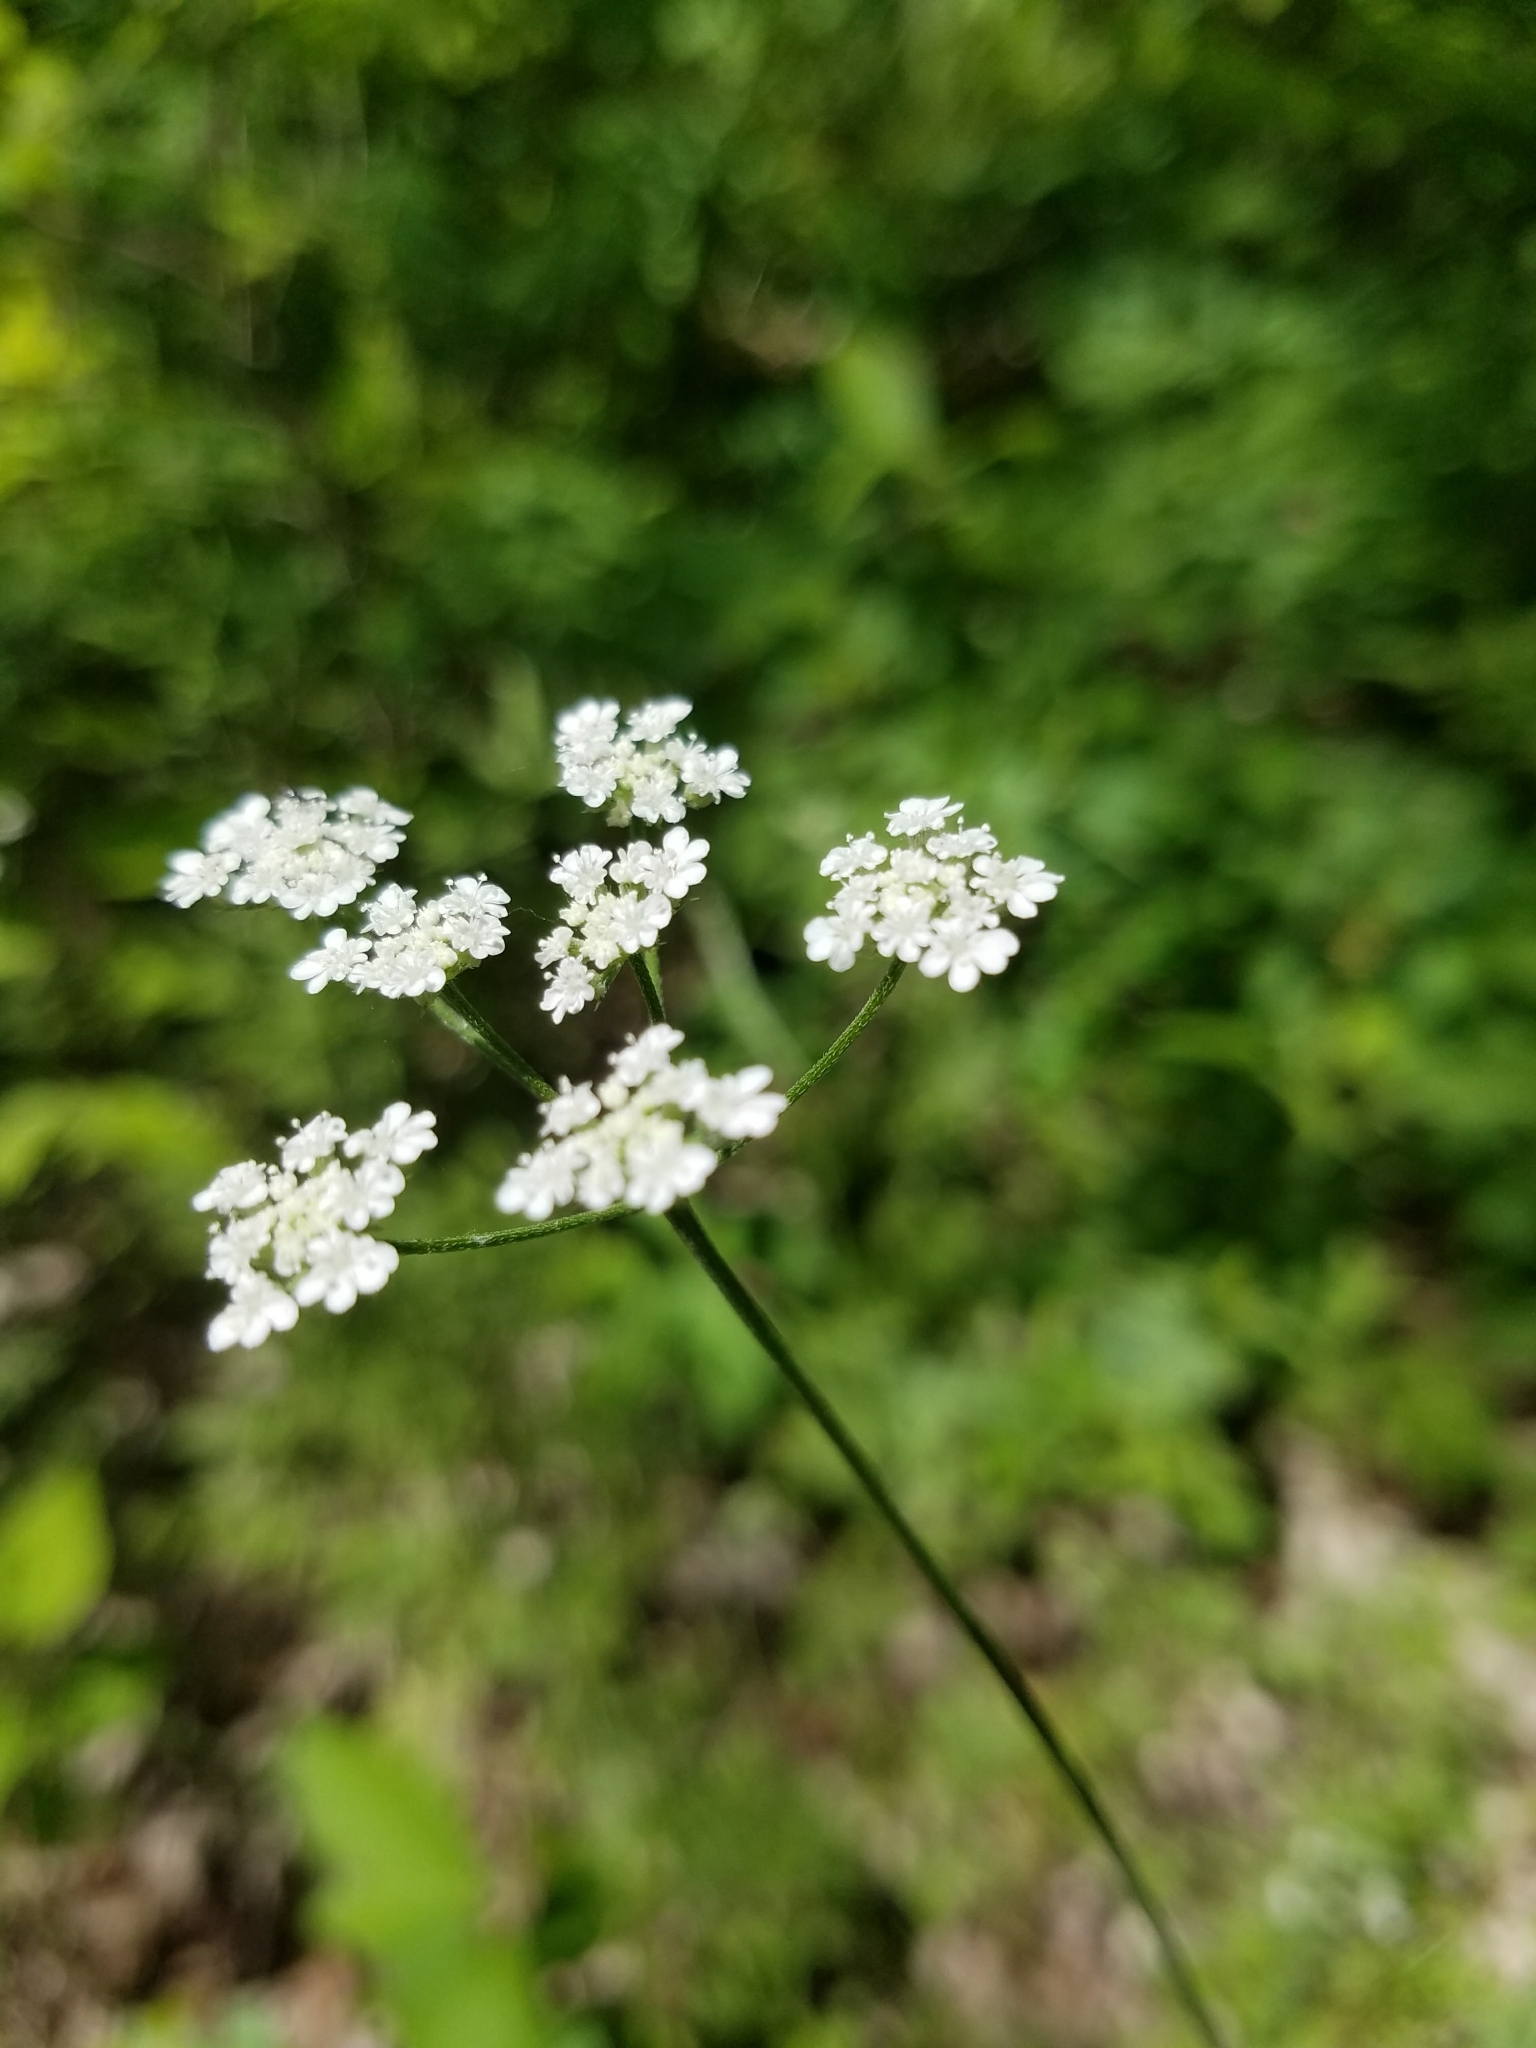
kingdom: Plantae
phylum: Tracheophyta
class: Magnoliopsida
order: Apiales
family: Apiaceae
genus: Torilis
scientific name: Torilis arvensis
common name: Spreading hedge-parsley
